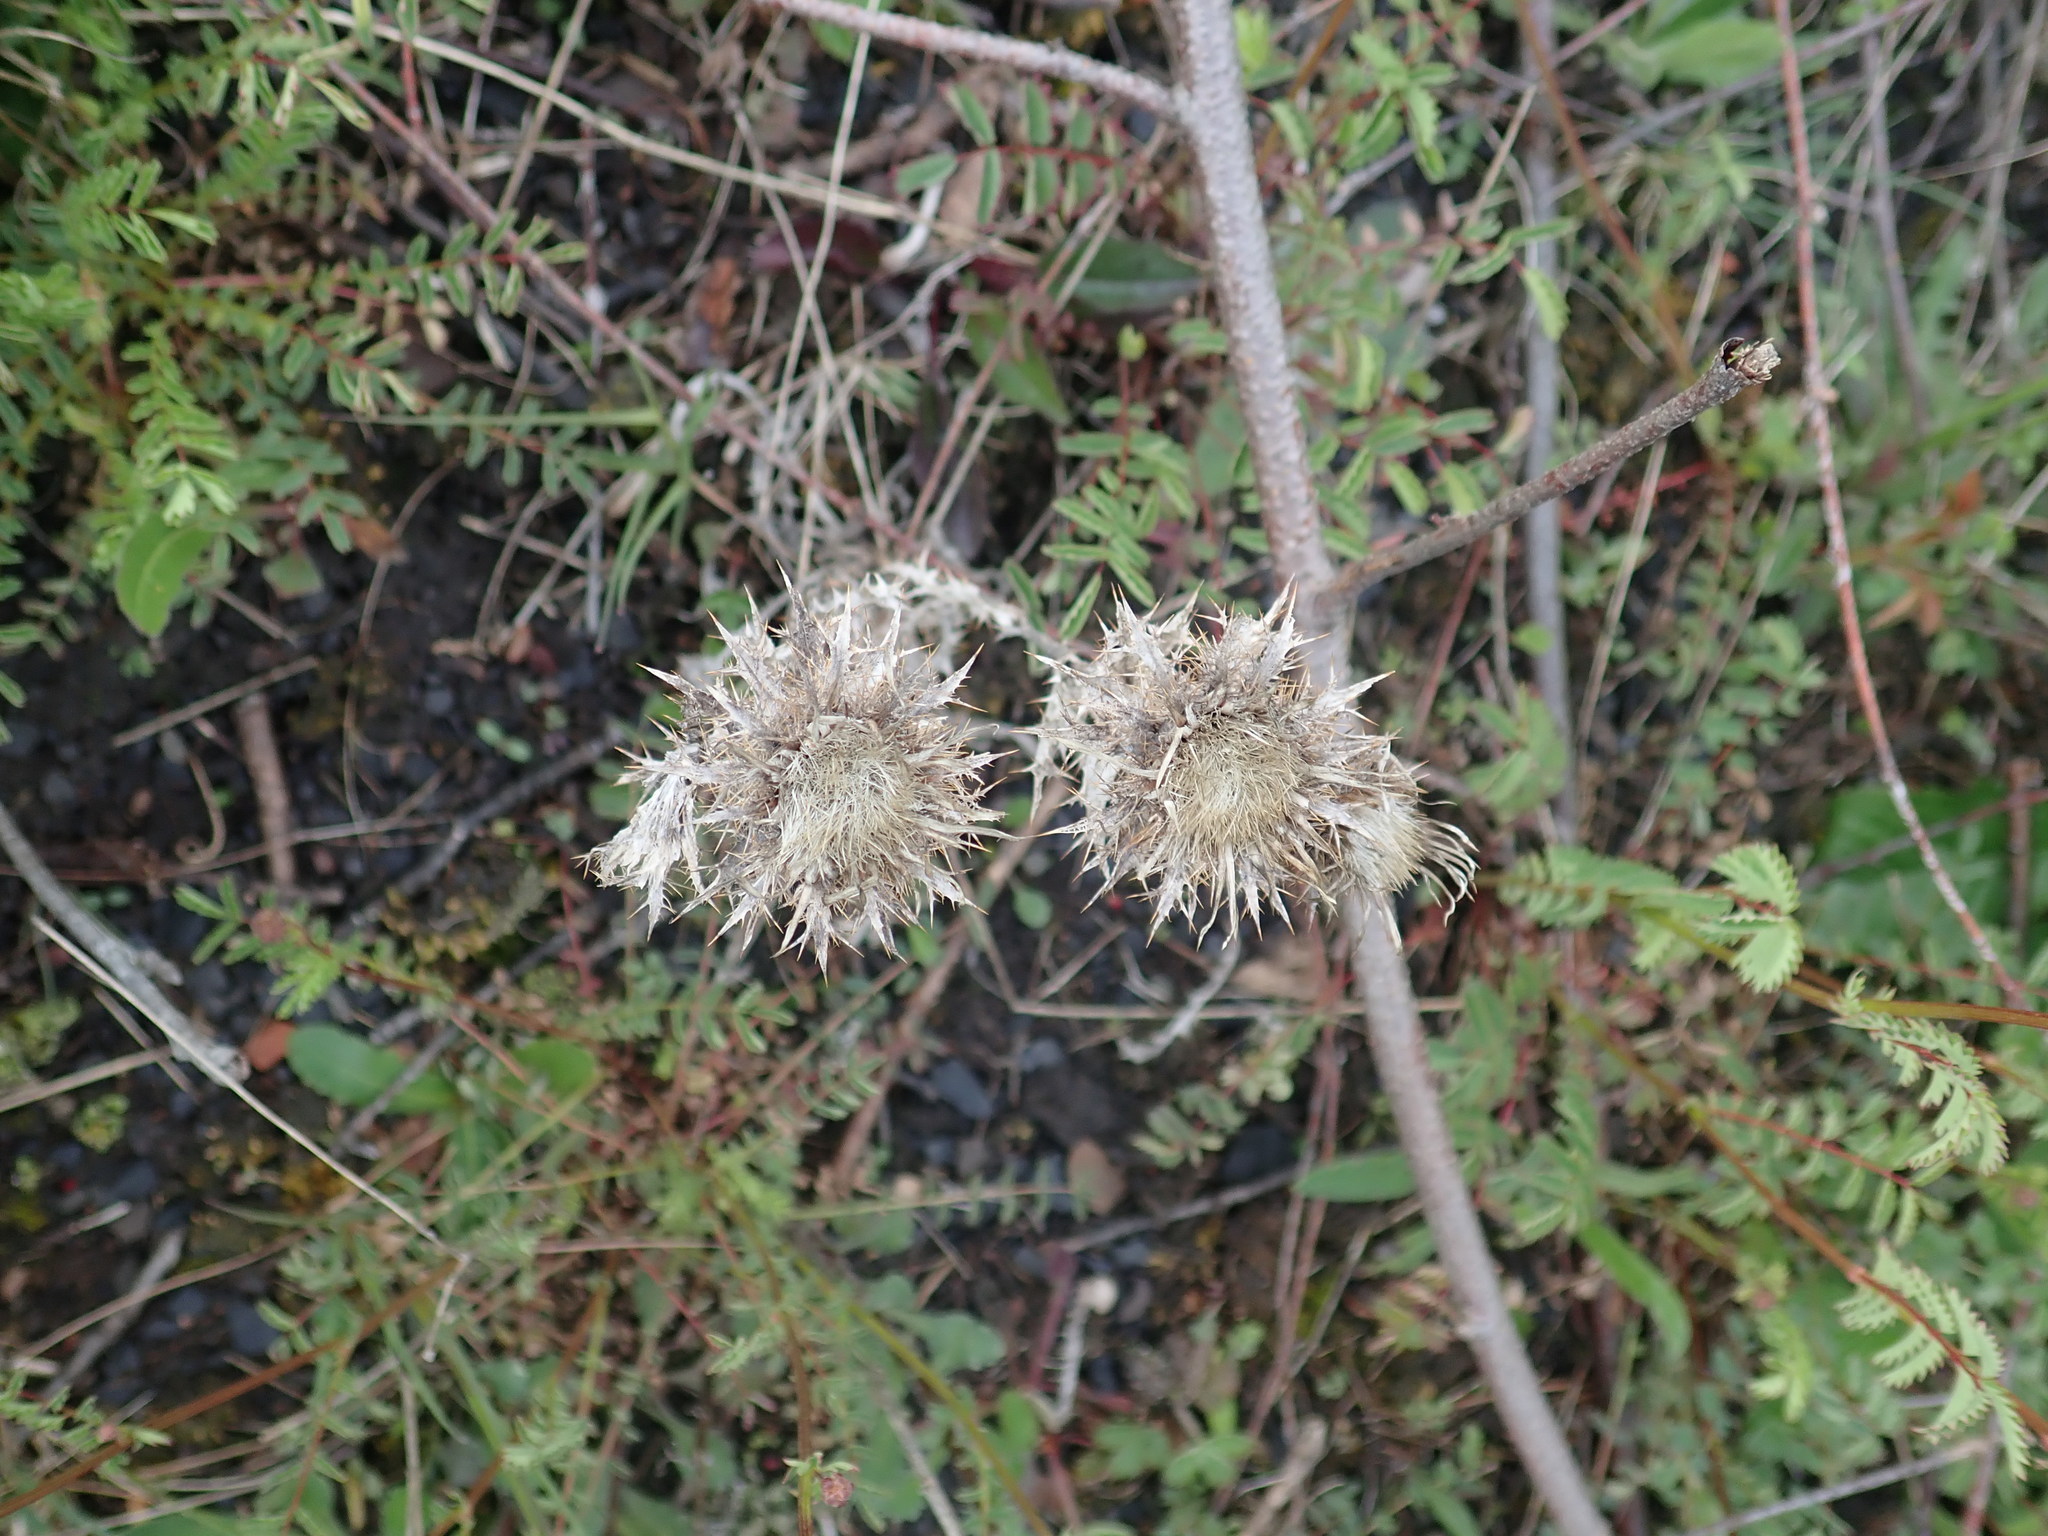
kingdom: Plantae
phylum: Tracheophyta
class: Magnoliopsida
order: Asterales
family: Asteraceae
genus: Carlina
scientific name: Carlina vulgaris
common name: Carline thistle
